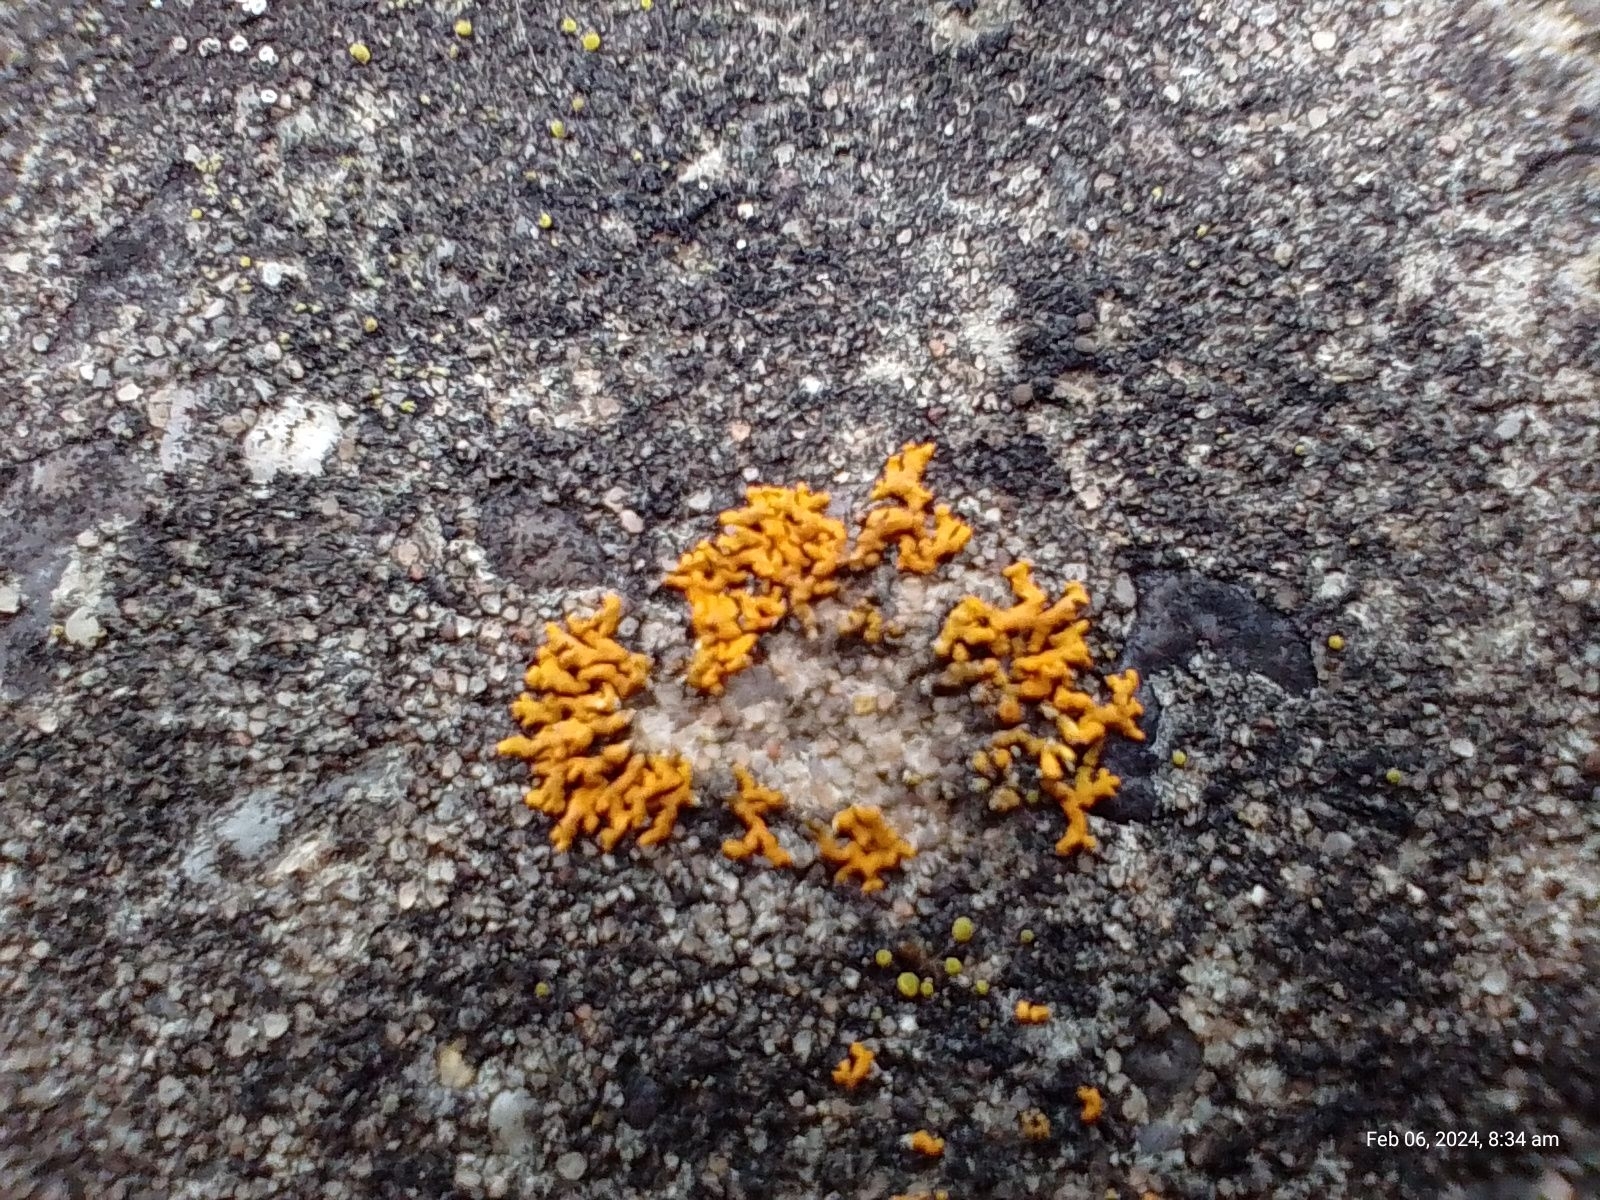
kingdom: Fungi
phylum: Ascomycota
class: Lecanoromycetes
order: Teloschistales
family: Teloschistaceae
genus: Xanthoria
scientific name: Xanthoria elegans
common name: Elegant sunburst lichen
